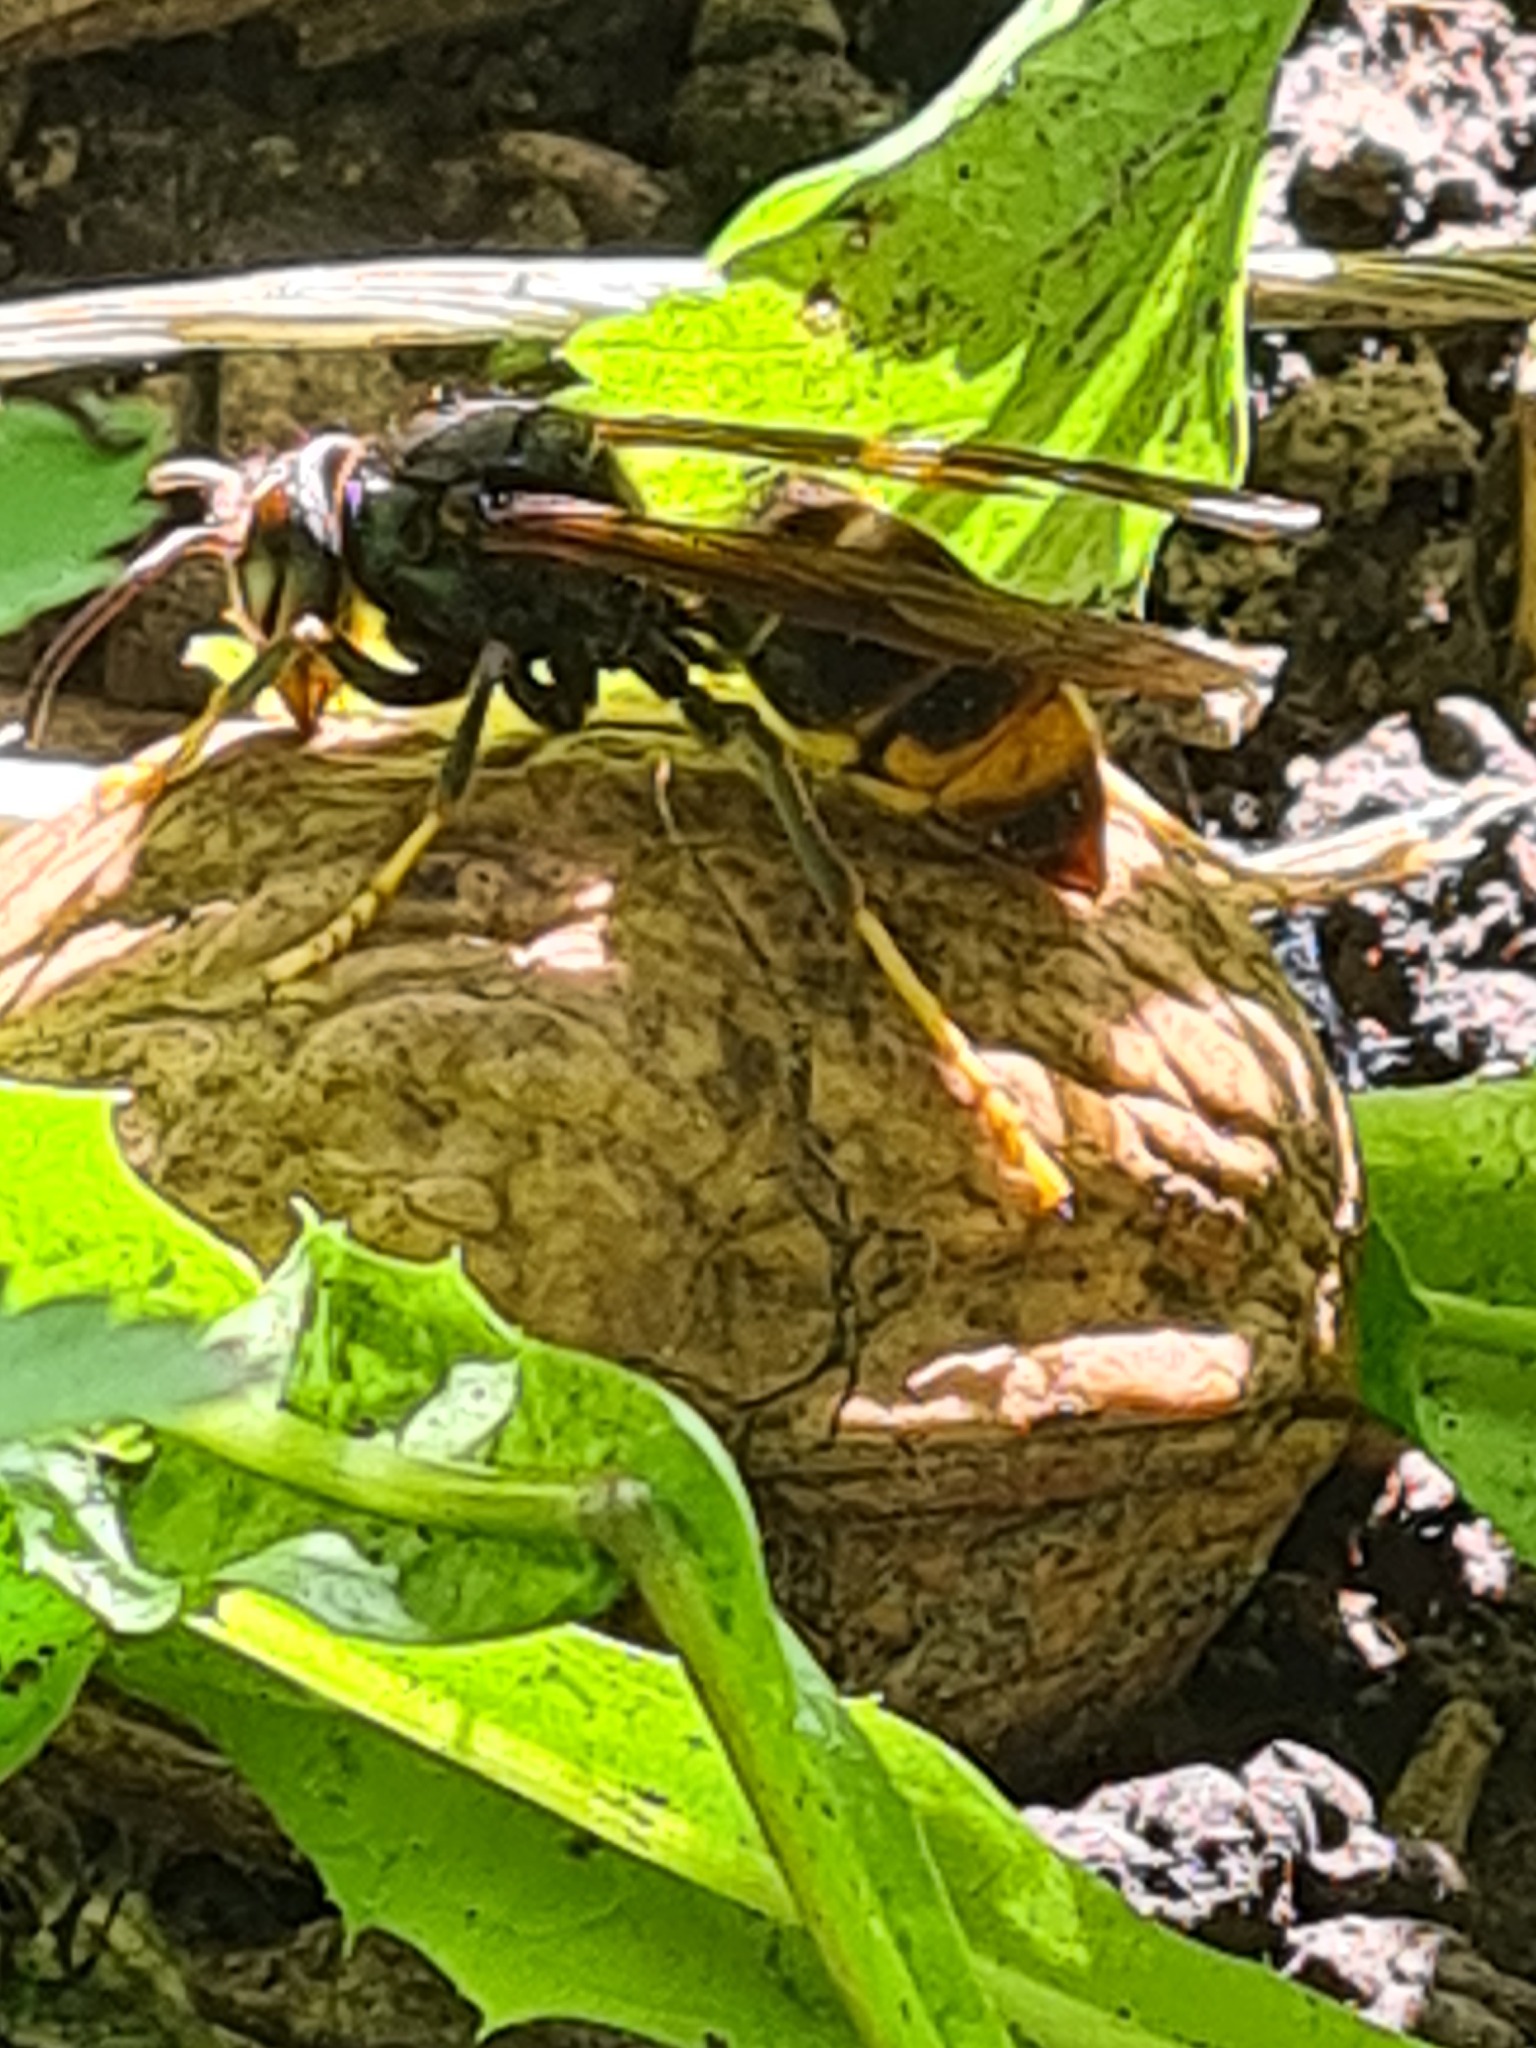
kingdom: Animalia
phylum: Arthropoda
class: Insecta
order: Hymenoptera
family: Vespidae
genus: Vespa
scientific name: Vespa velutina
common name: Asian hornet
